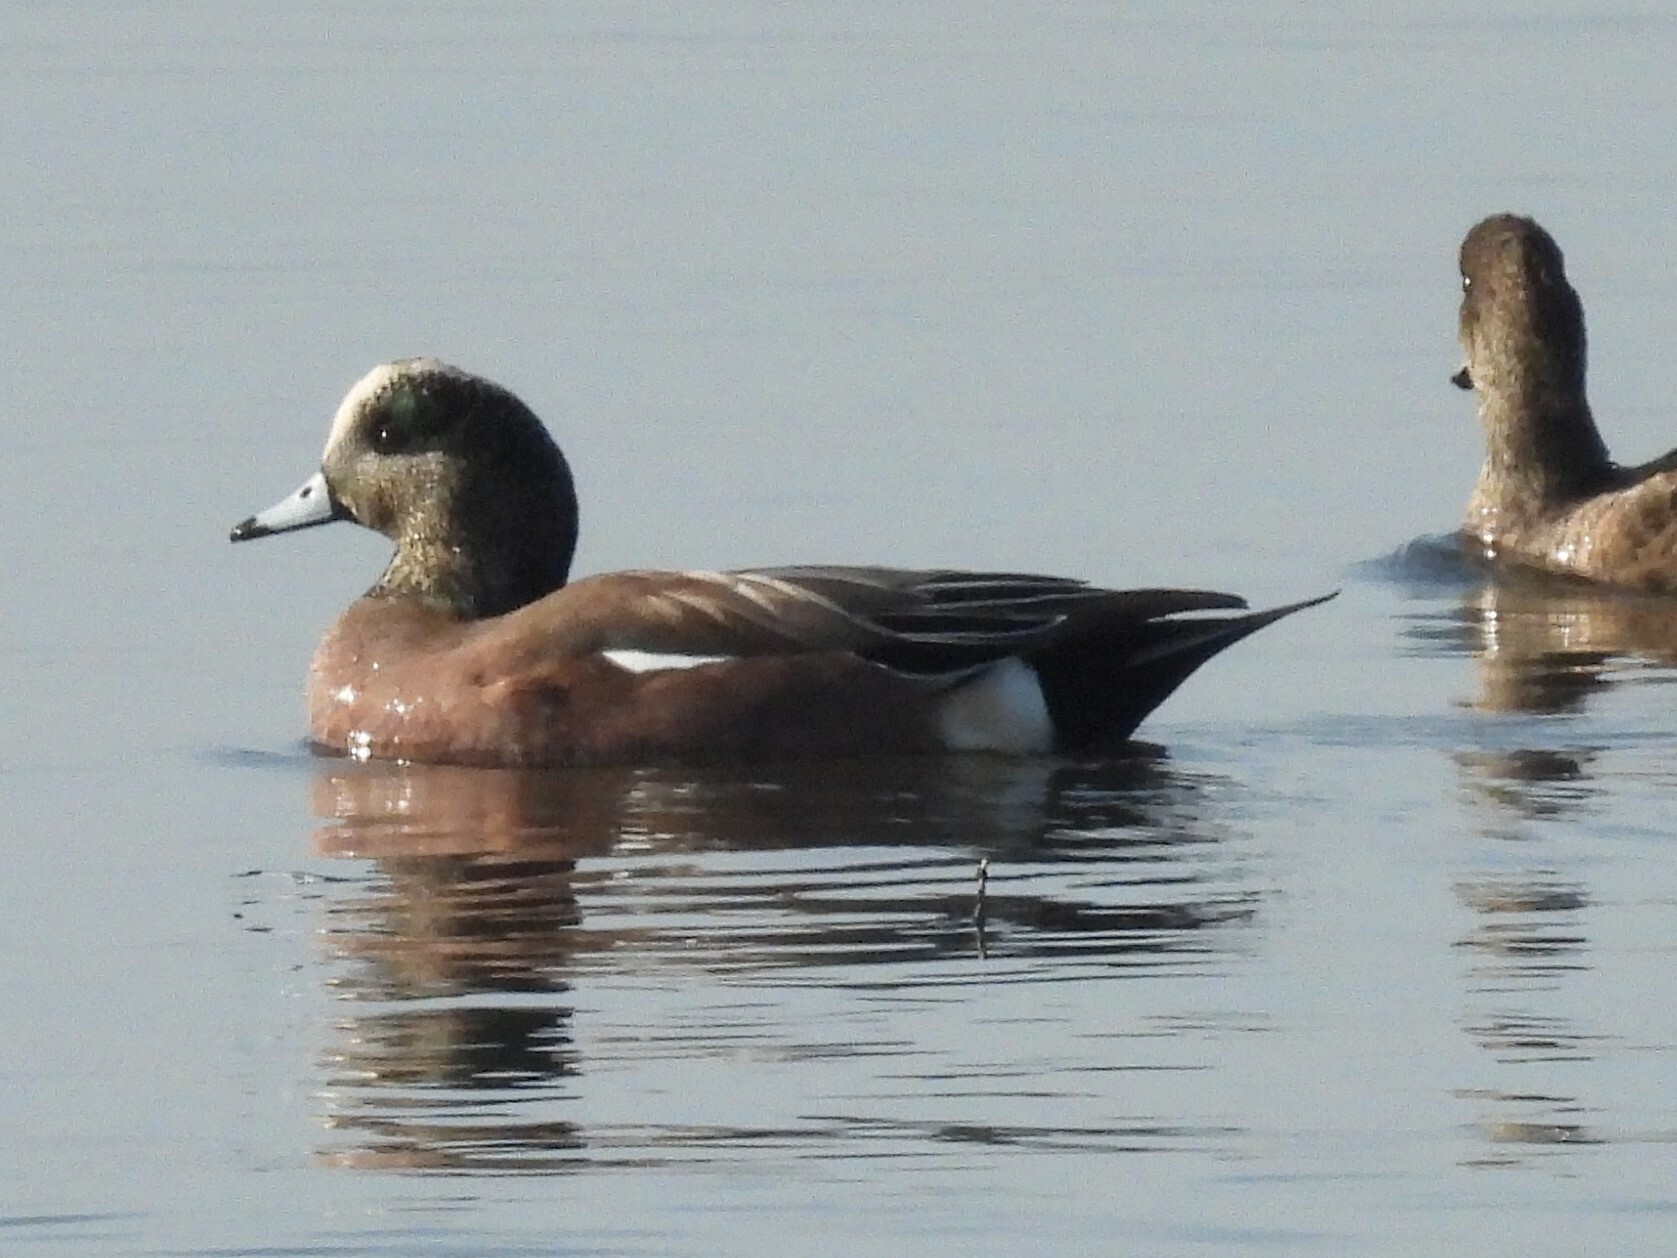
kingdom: Animalia
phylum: Chordata
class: Aves
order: Anseriformes
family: Anatidae
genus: Mareca
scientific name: Mareca americana
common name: American wigeon
